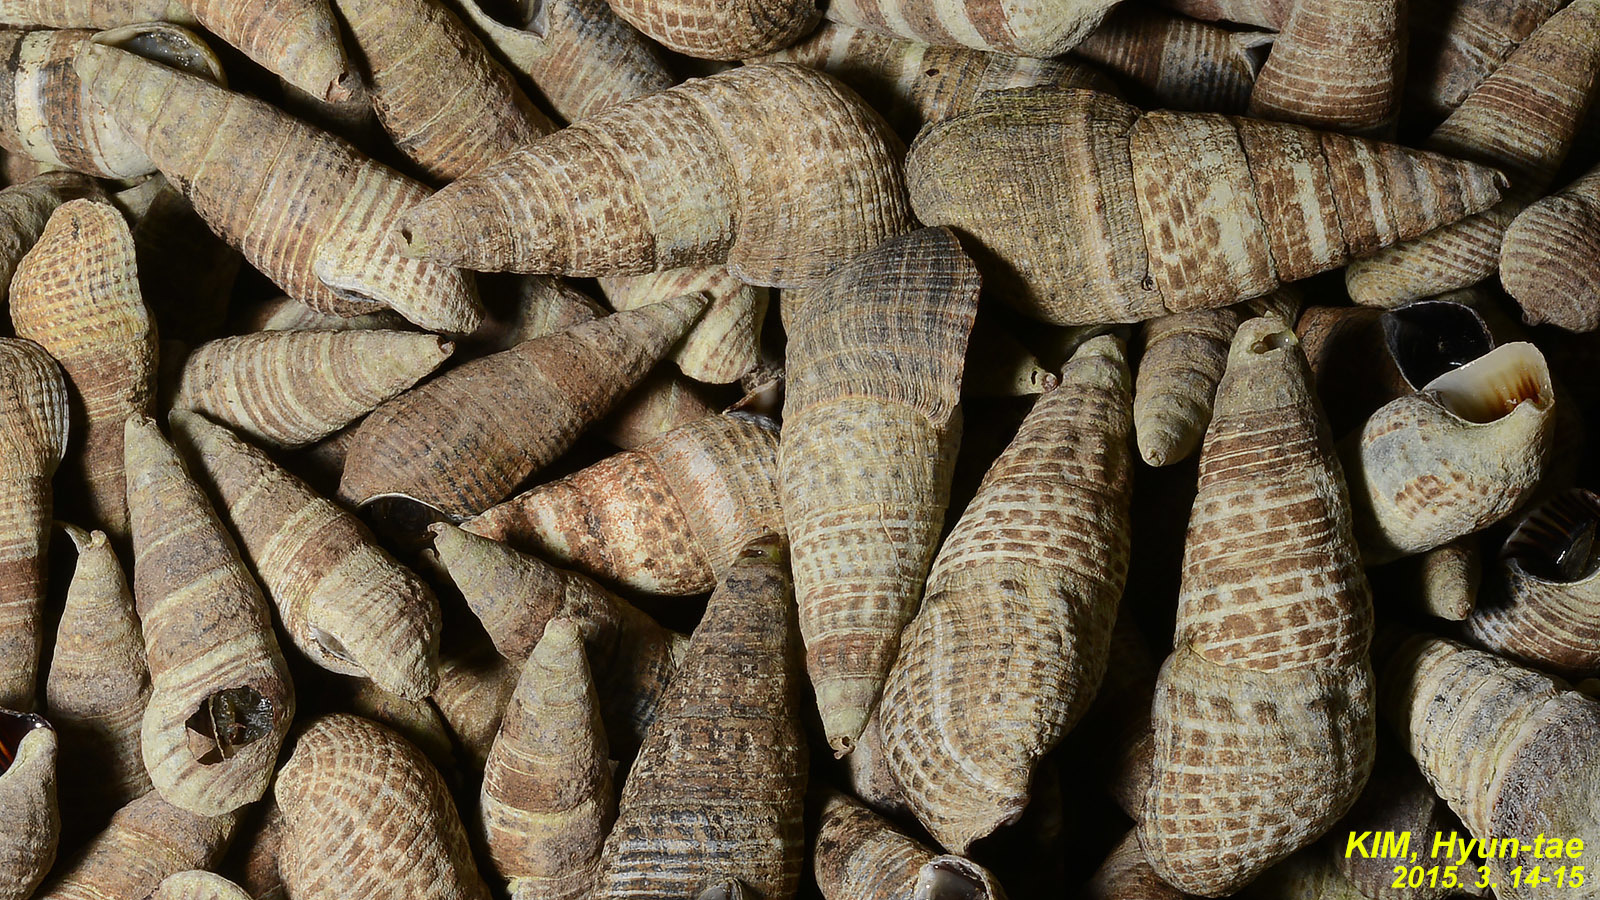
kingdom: Animalia
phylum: Mollusca
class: Gastropoda
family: Batillariidae
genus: Batillaria
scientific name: Batillaria attramentaria
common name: Japanese false cerith
